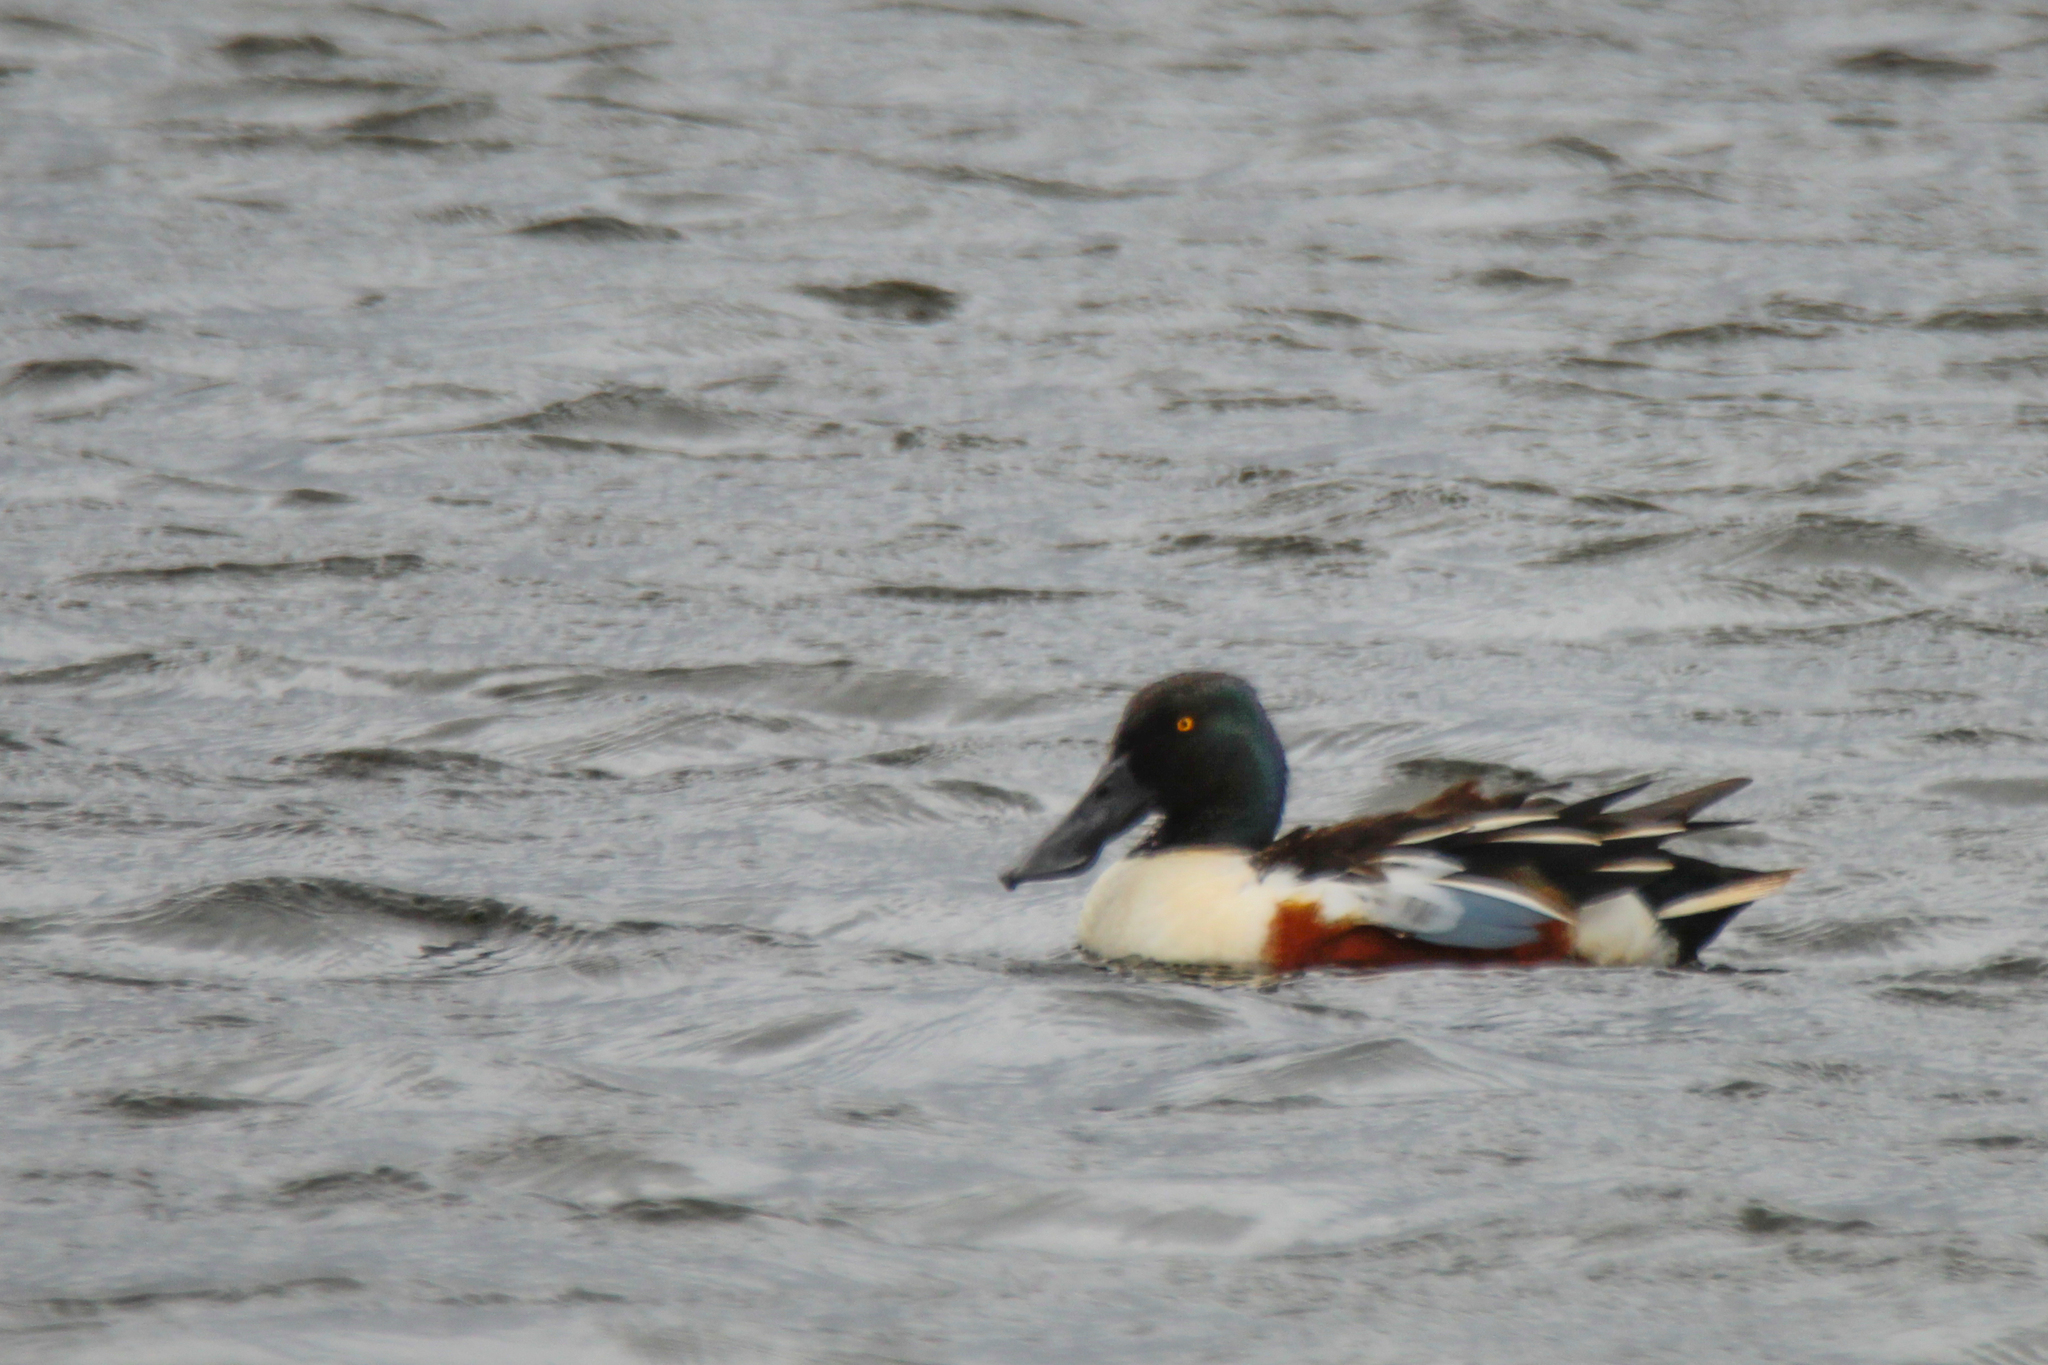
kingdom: Animalia
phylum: Chordata
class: Aves
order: Anseriformes
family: Anatidae
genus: Spatula
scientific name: Spatula clypeata
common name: Northern shoveler
